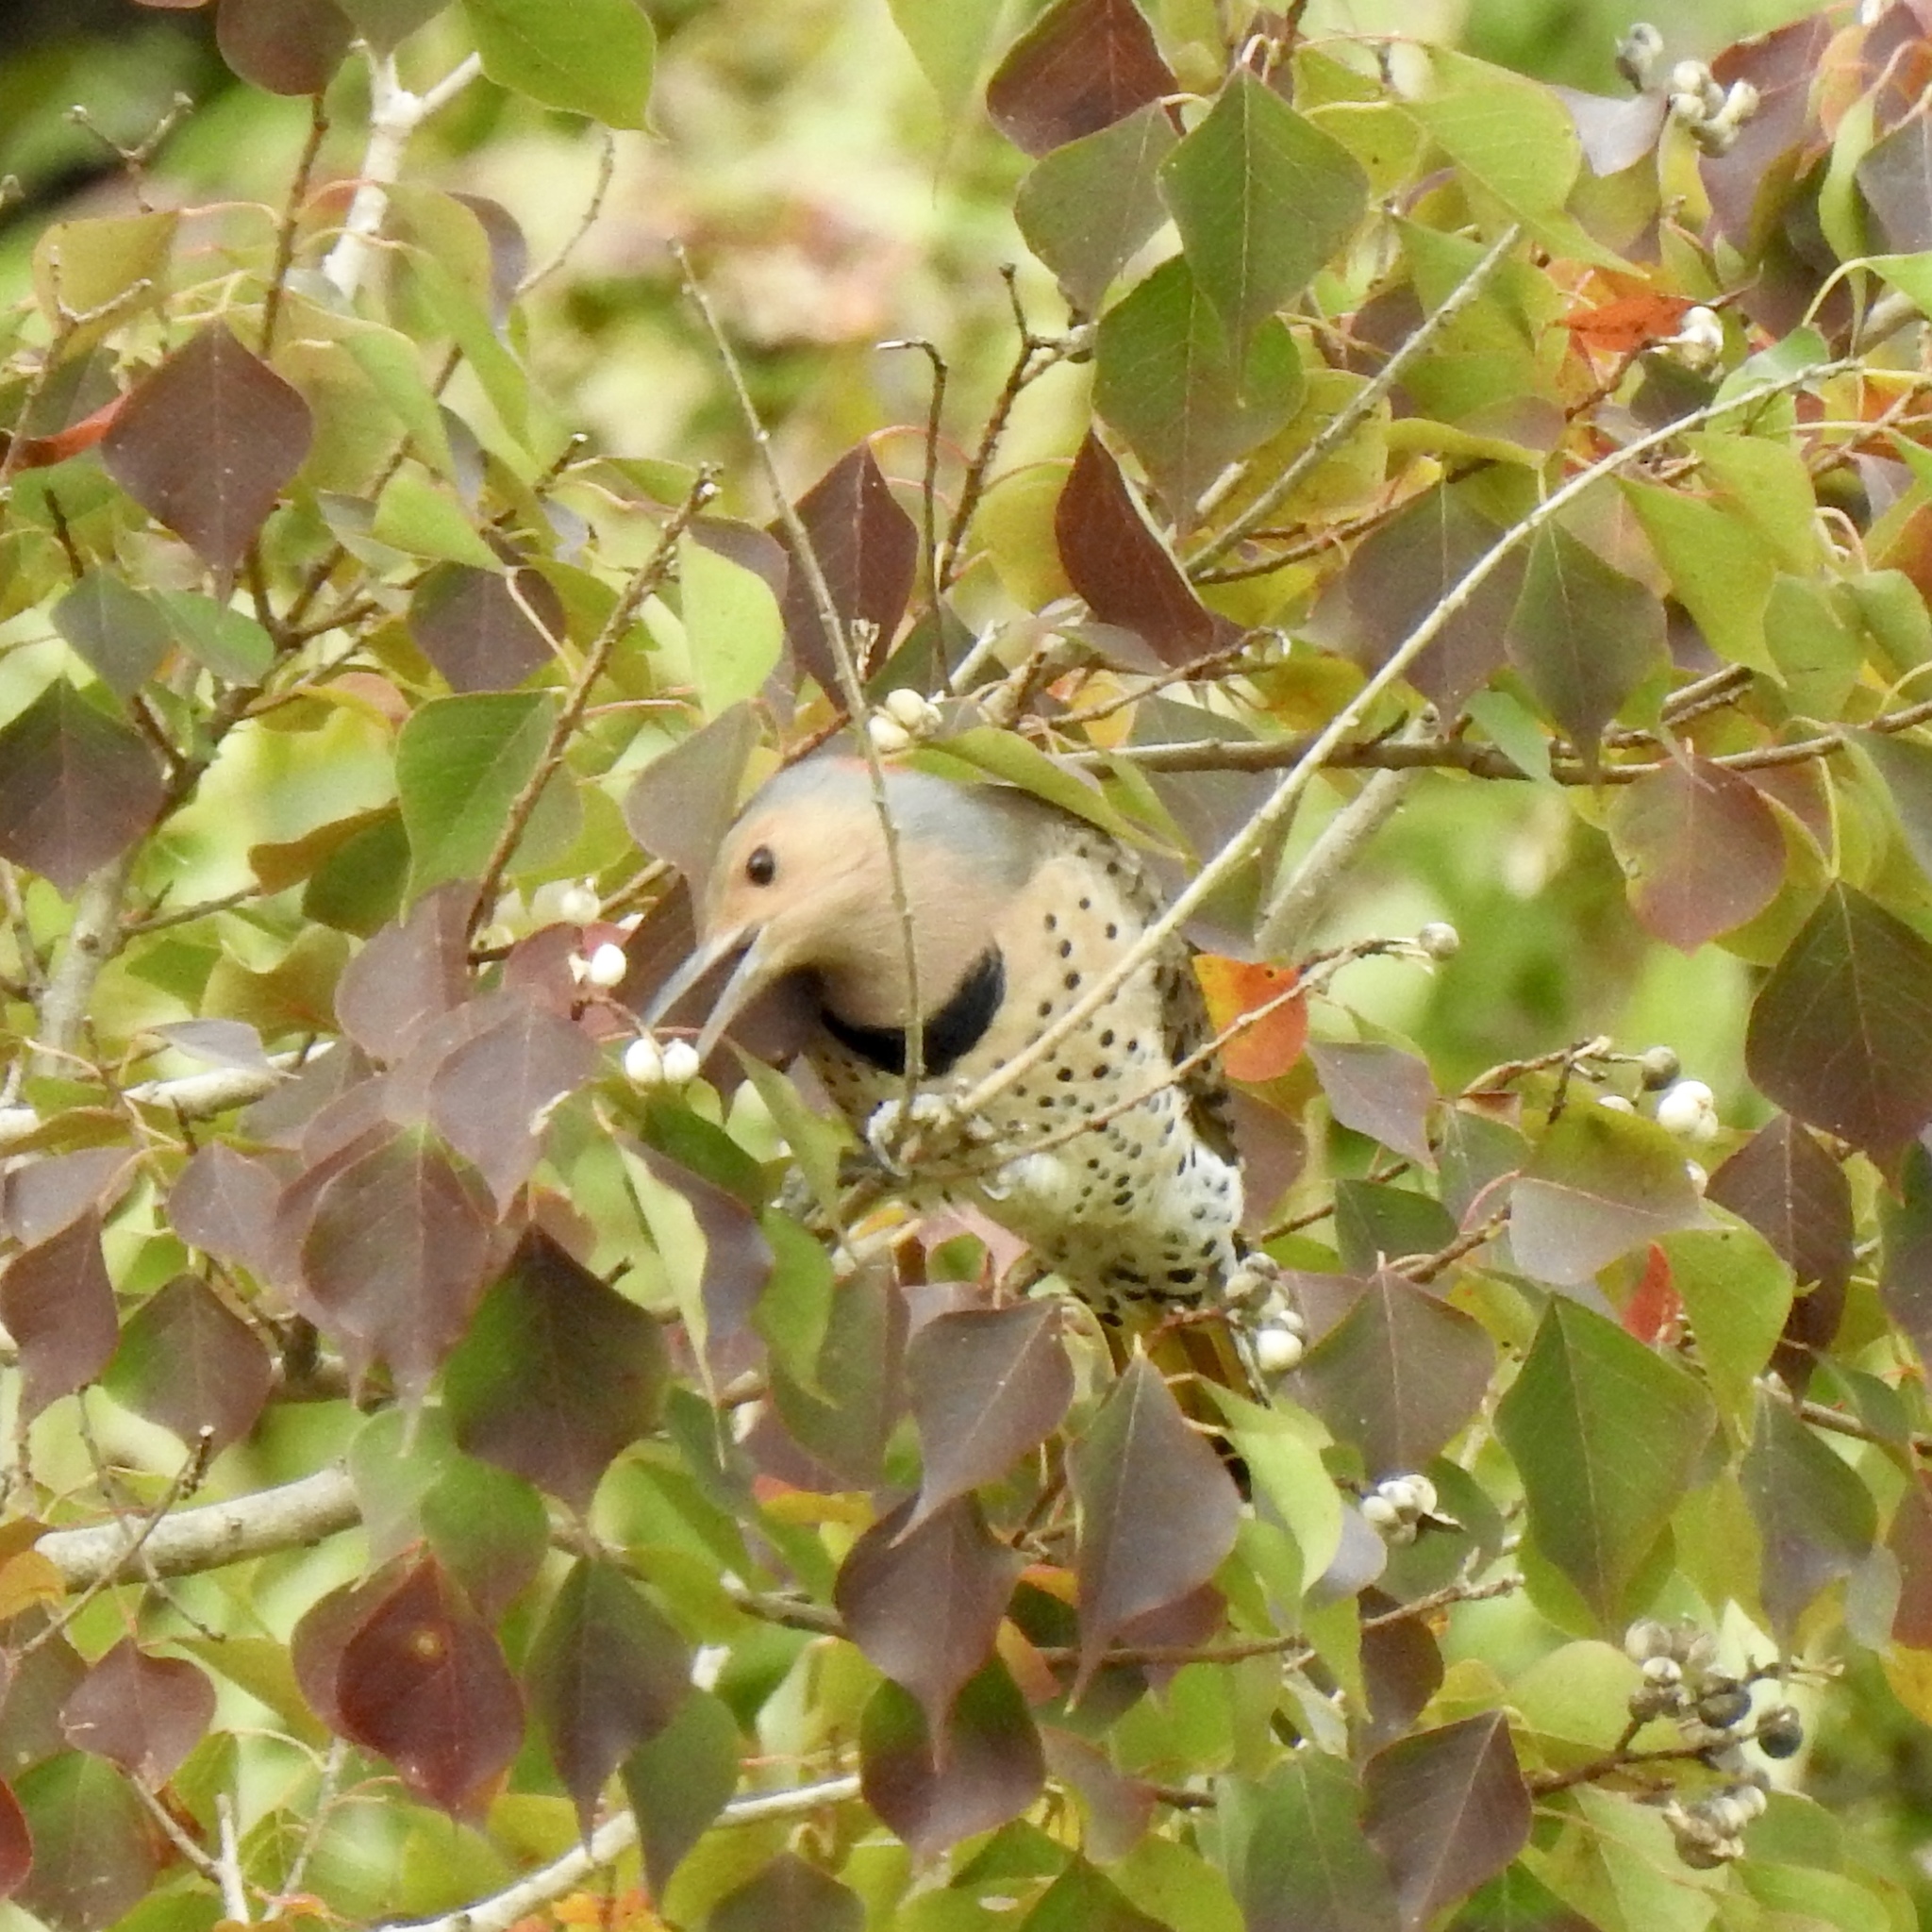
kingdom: Animalia
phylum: Chordata
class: Aves
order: Piciformes
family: Picidae
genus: Colaptes
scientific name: Colaptes auratus
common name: Northern flicker
